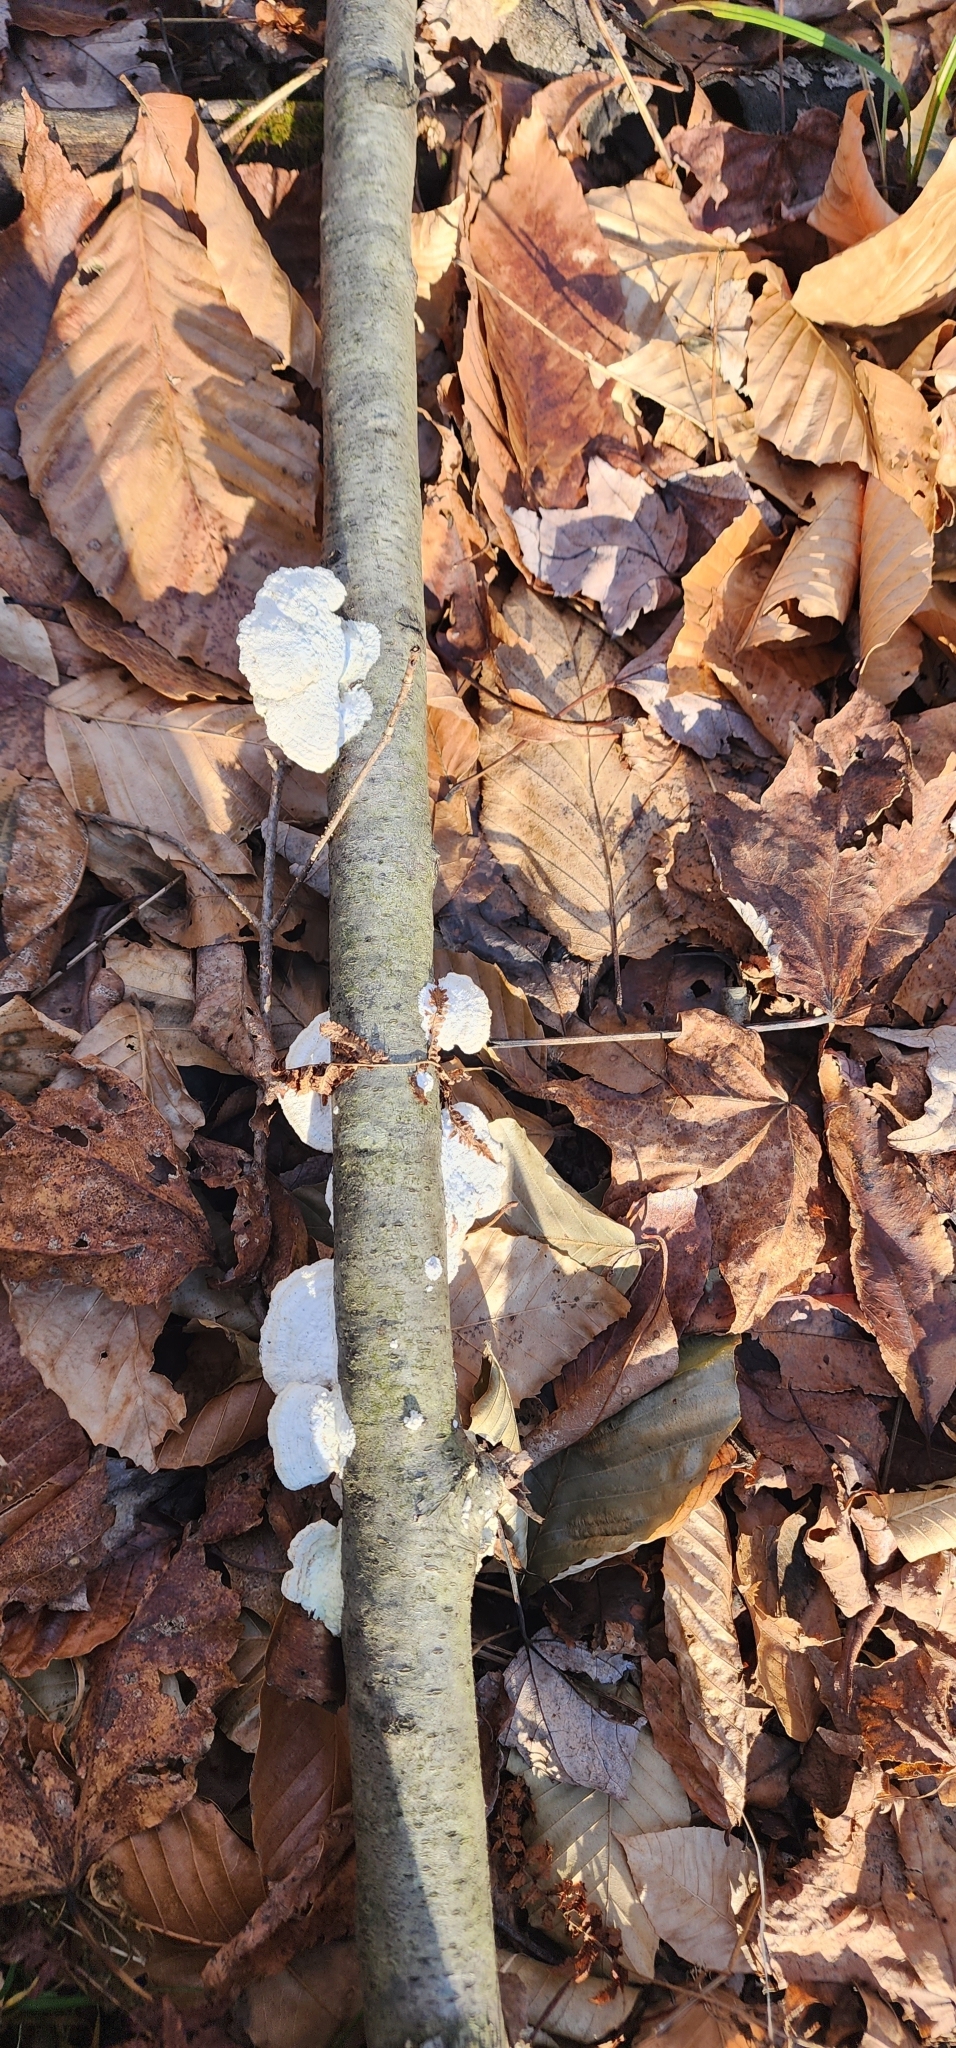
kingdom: Fungi
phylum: Basidiomycota
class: Agaricomycetes
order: Hymenochaetales
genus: Trichaptum
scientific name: Trichaptum biforme
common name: Violet-toothed polypore
